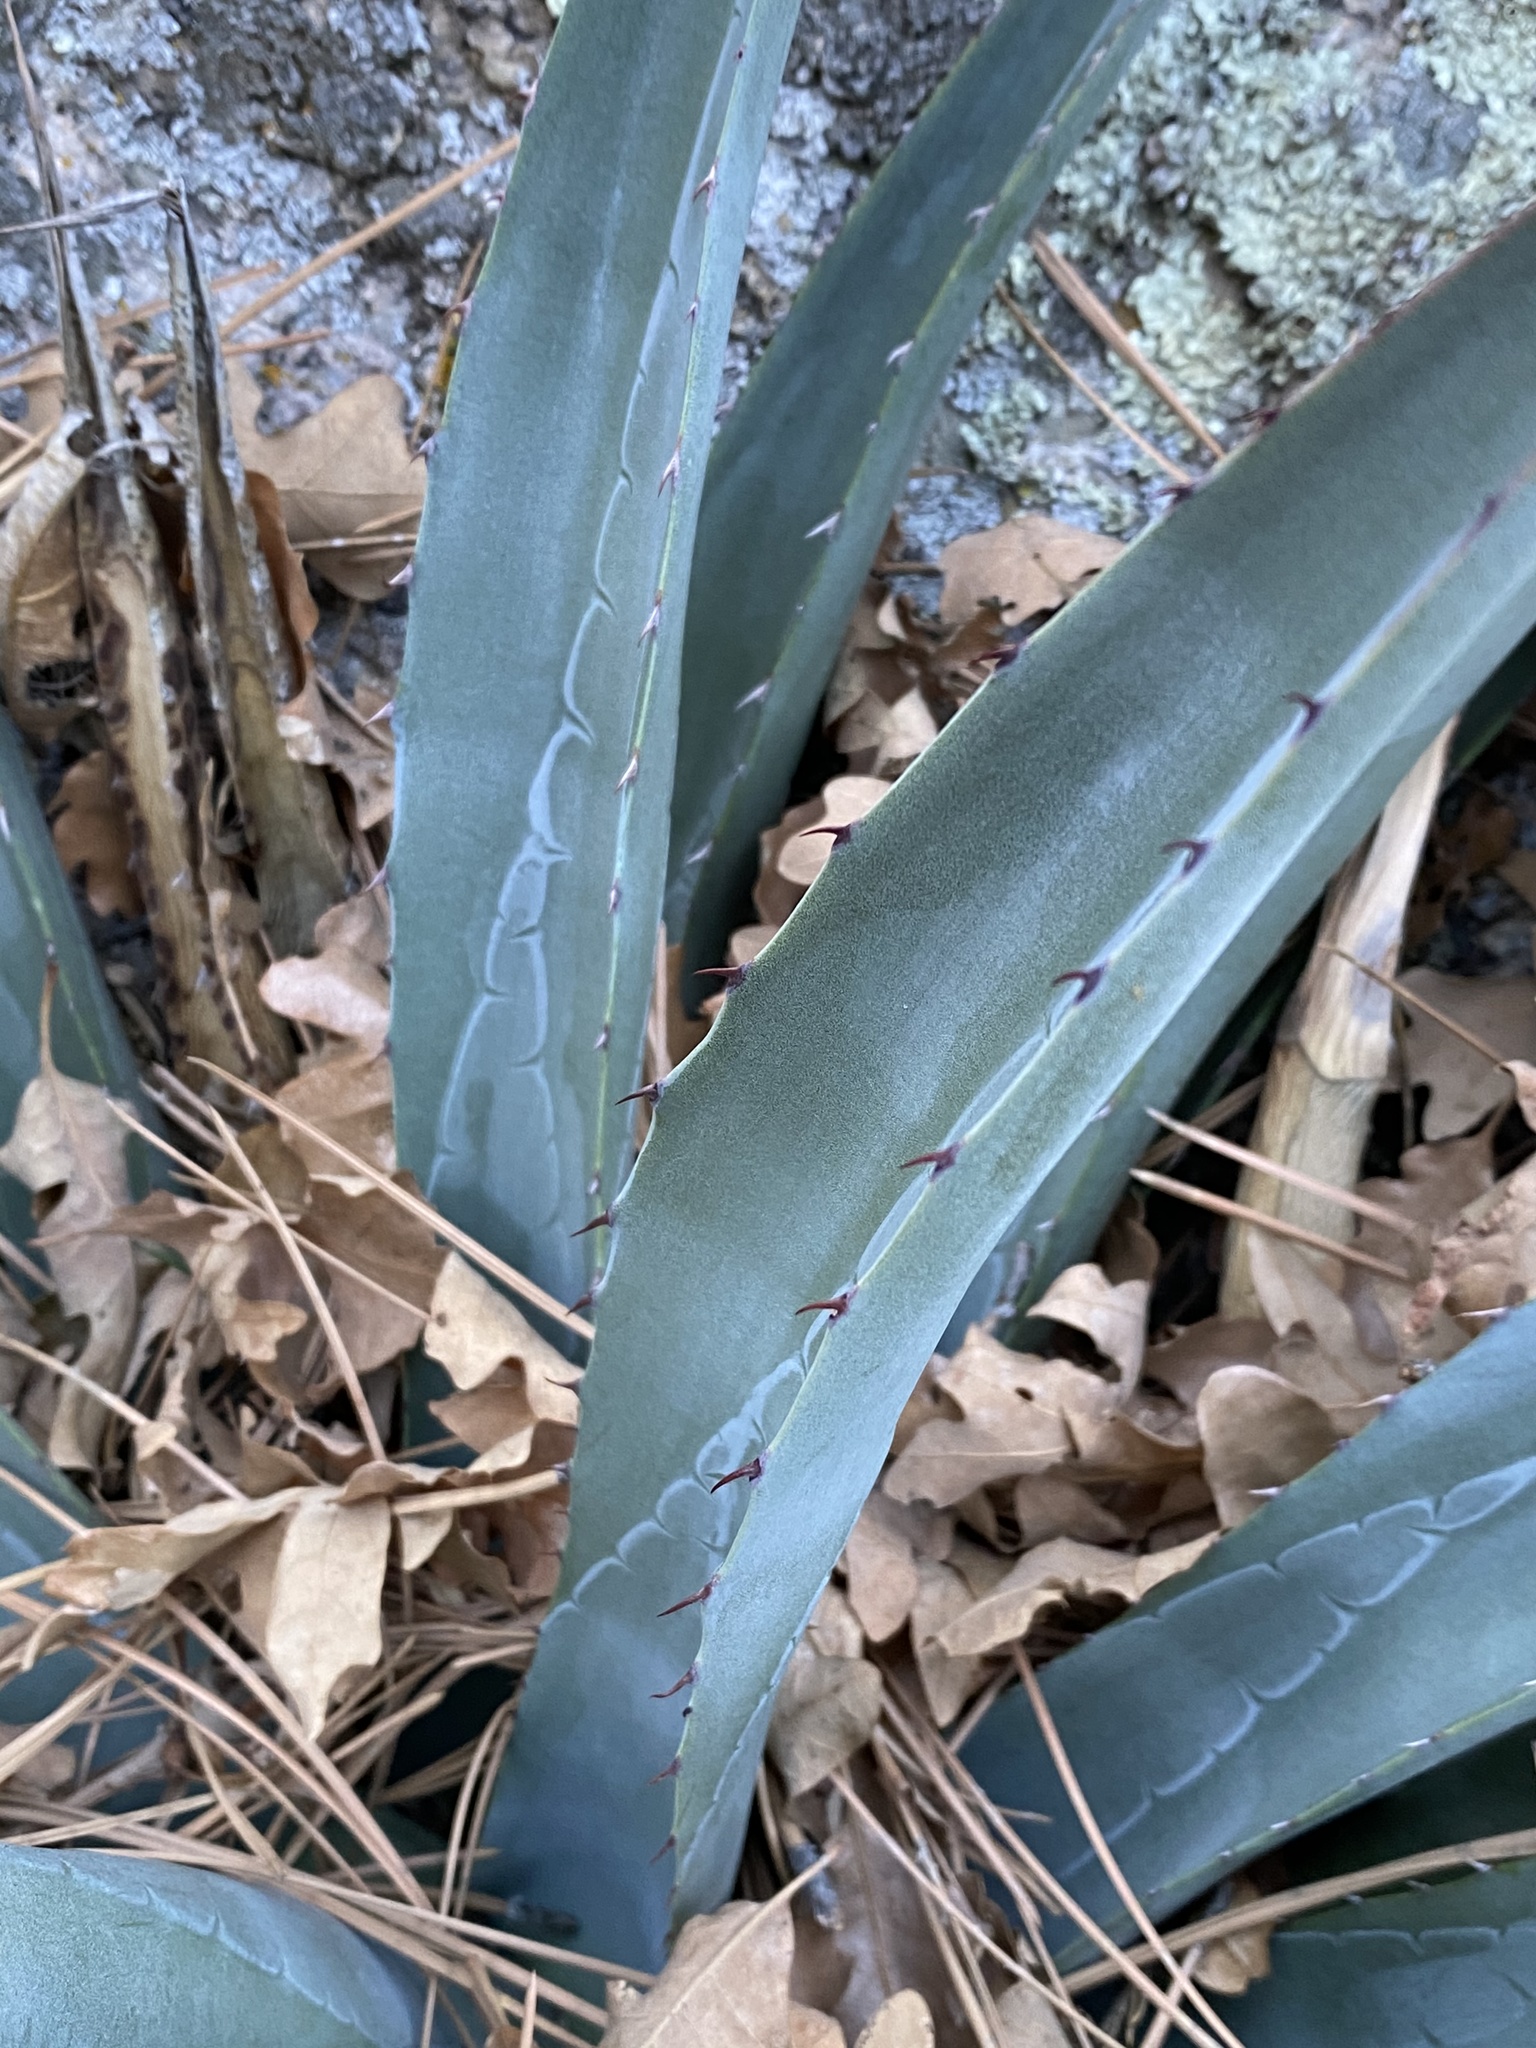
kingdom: Plantae
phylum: Tracheophyta
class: Liliopsida
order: Asparagales
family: Asparagaceae
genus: Agave
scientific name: Agave mckelveyana
